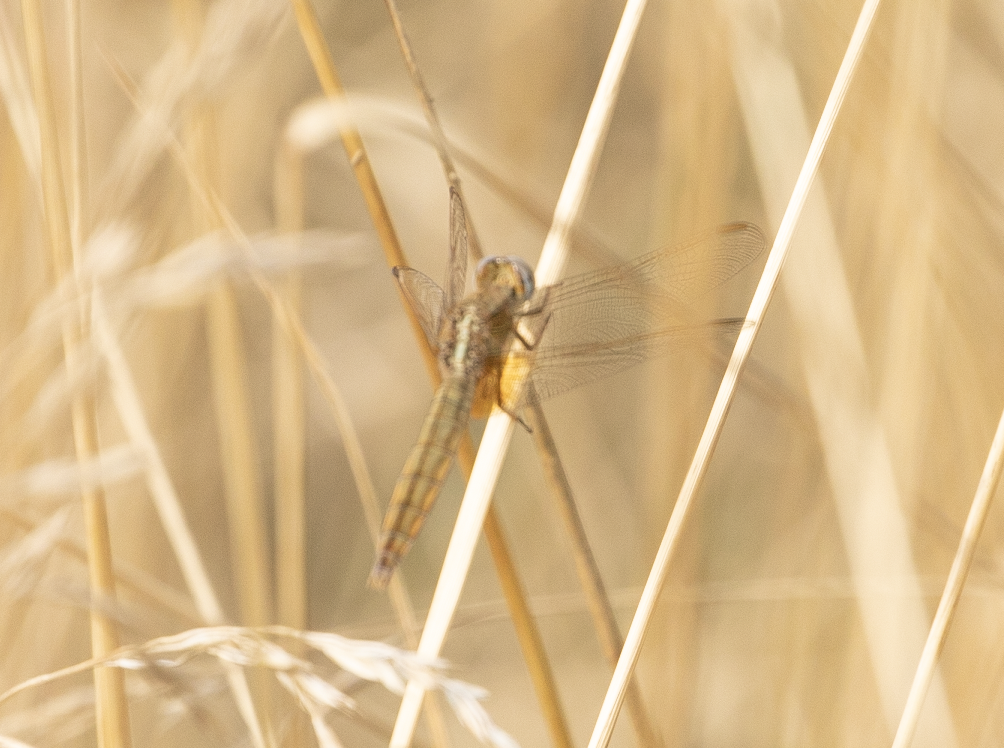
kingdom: Animalia
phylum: Arthropoda
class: Insecta
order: Odonata
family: Libellulidae
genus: Crocothemis
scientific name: Crocothemis erythraea
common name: Scarlet dragonfly
